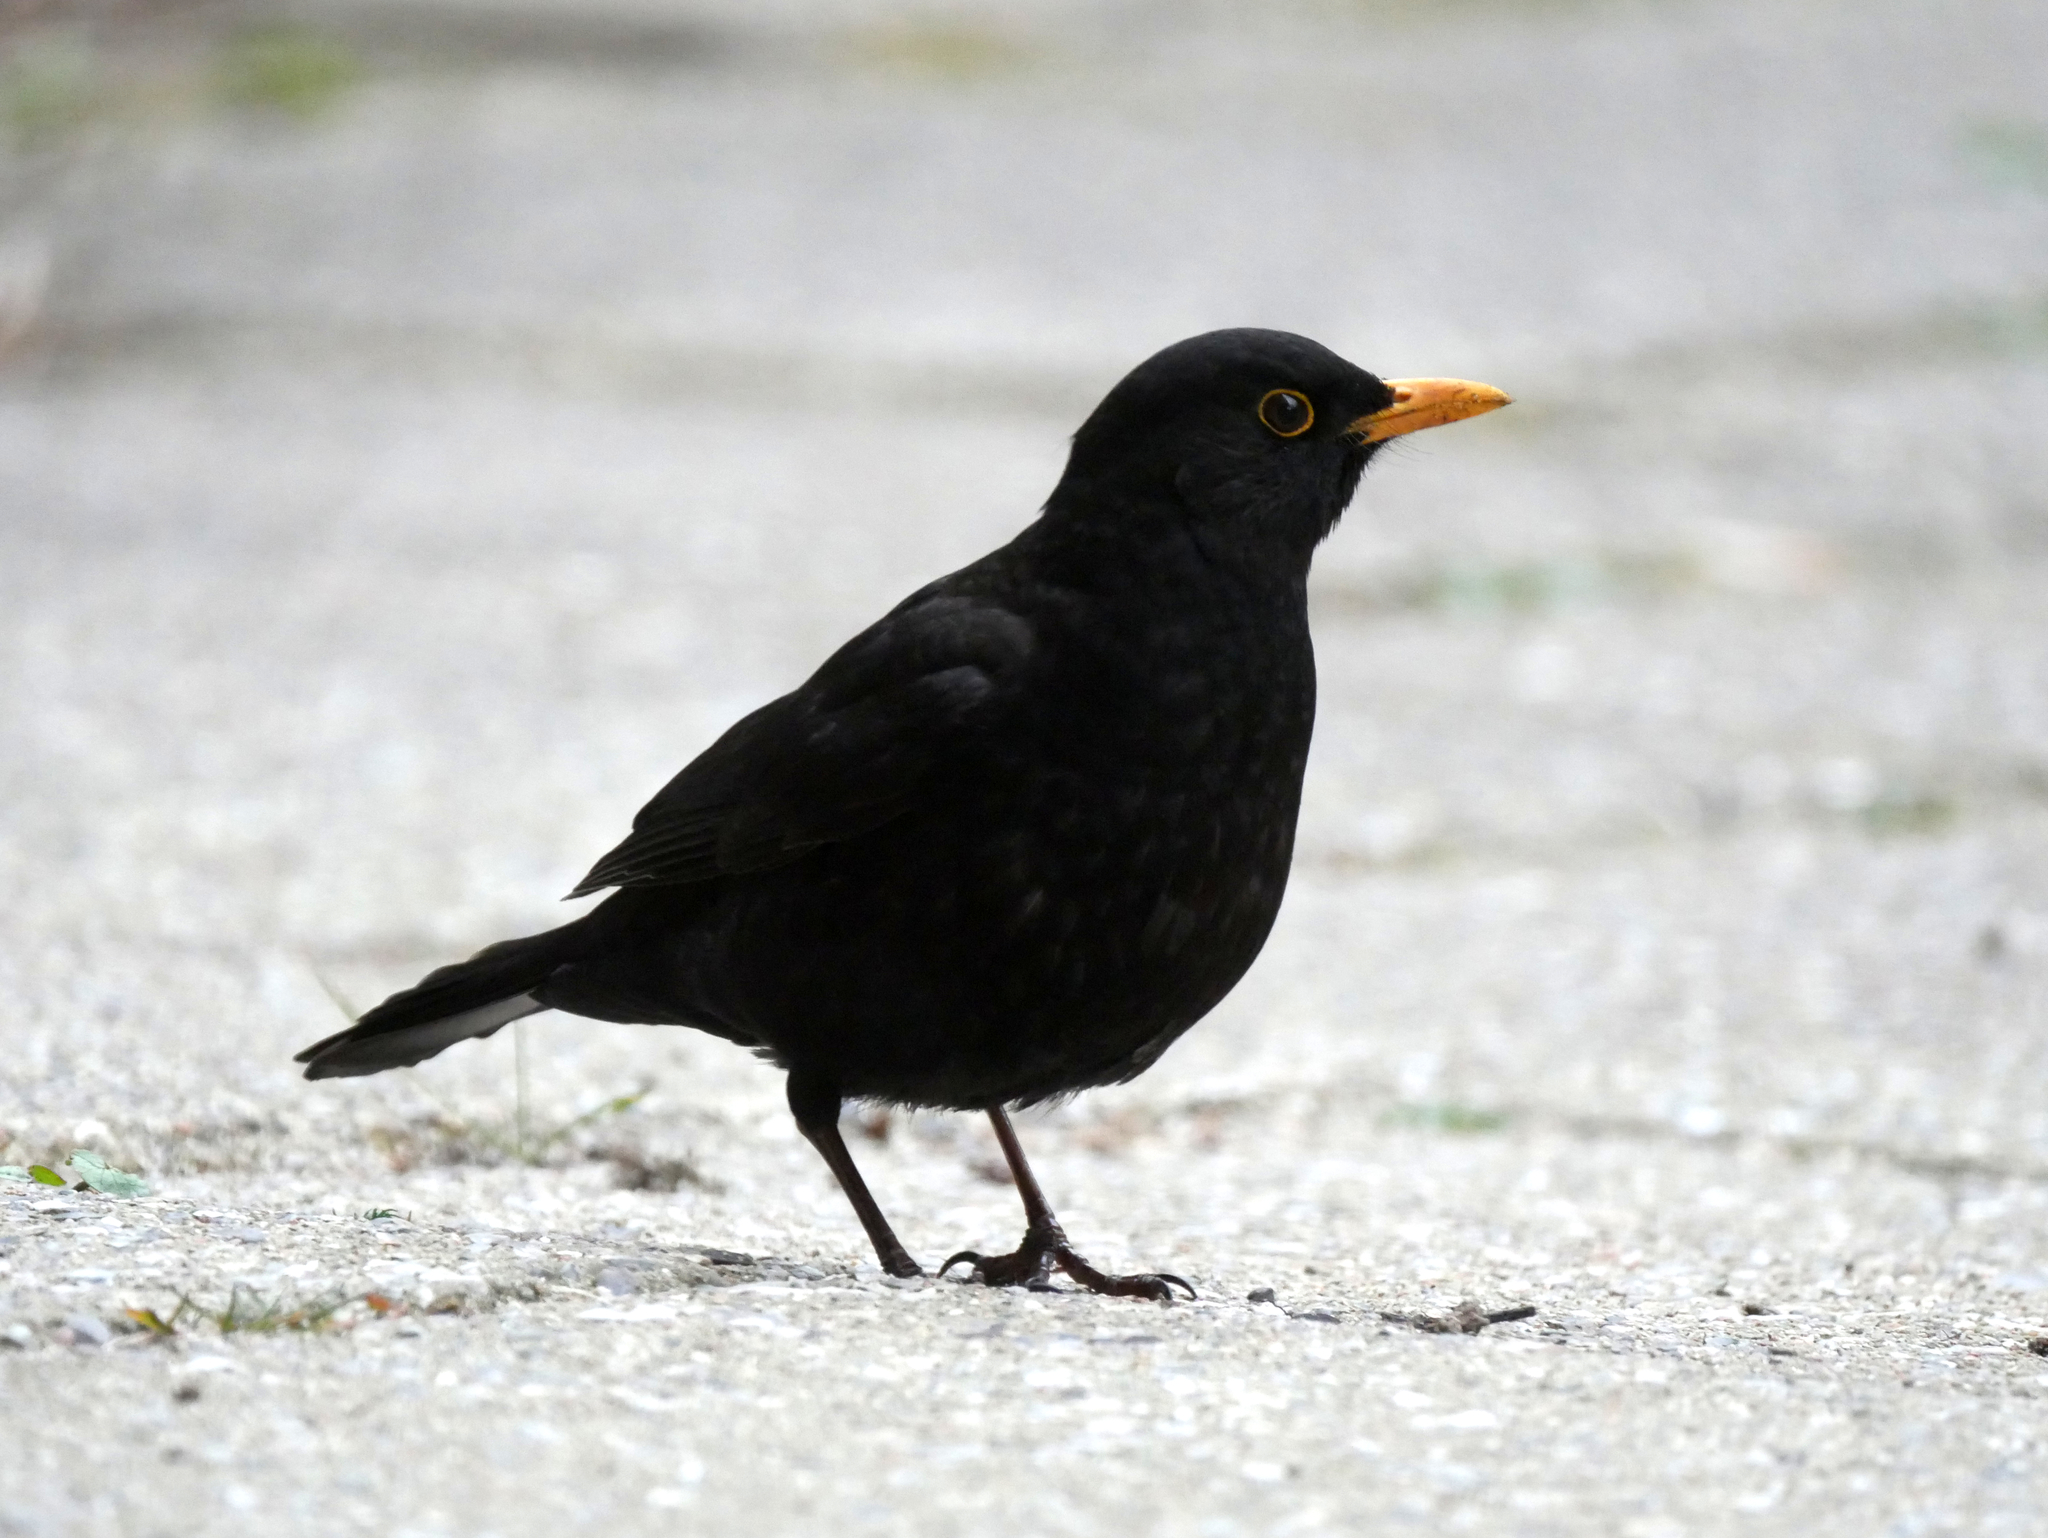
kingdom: Animalia
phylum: Chordata
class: Aves
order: Passeriformes
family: Turdidae
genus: Turdus
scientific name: Turdus merula
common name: Common blackbird
